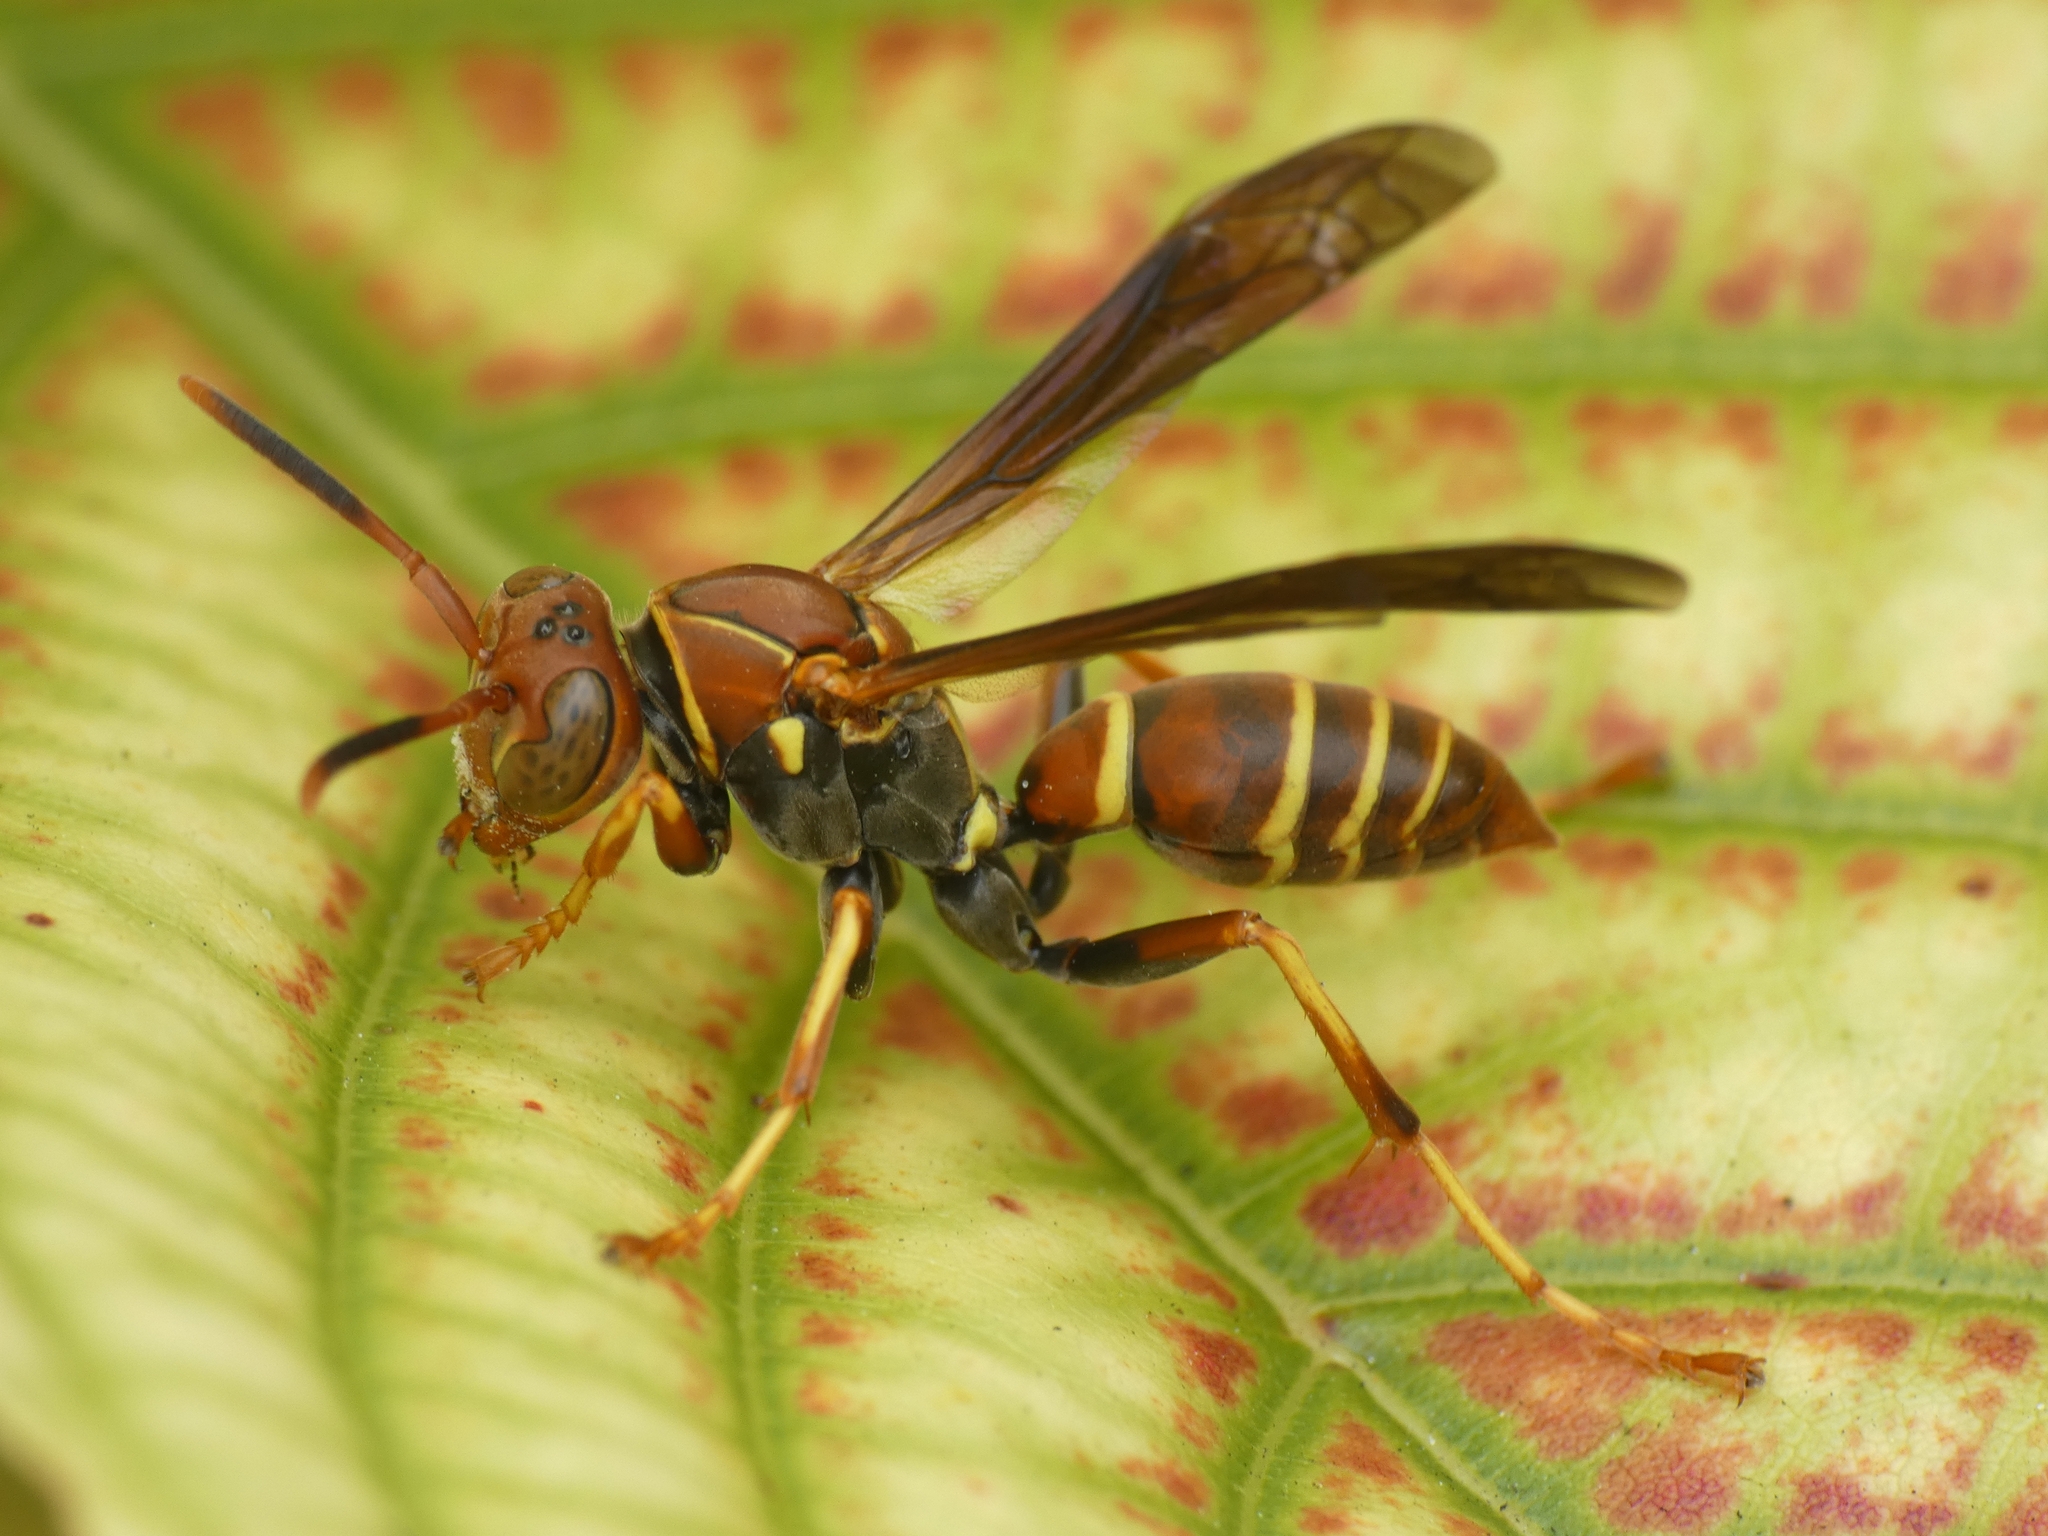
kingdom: Animalia
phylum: Arthropoda
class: Insecta
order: Hymenoptera
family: Eumenidae
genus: Polistes
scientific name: Polistes dorsalis
